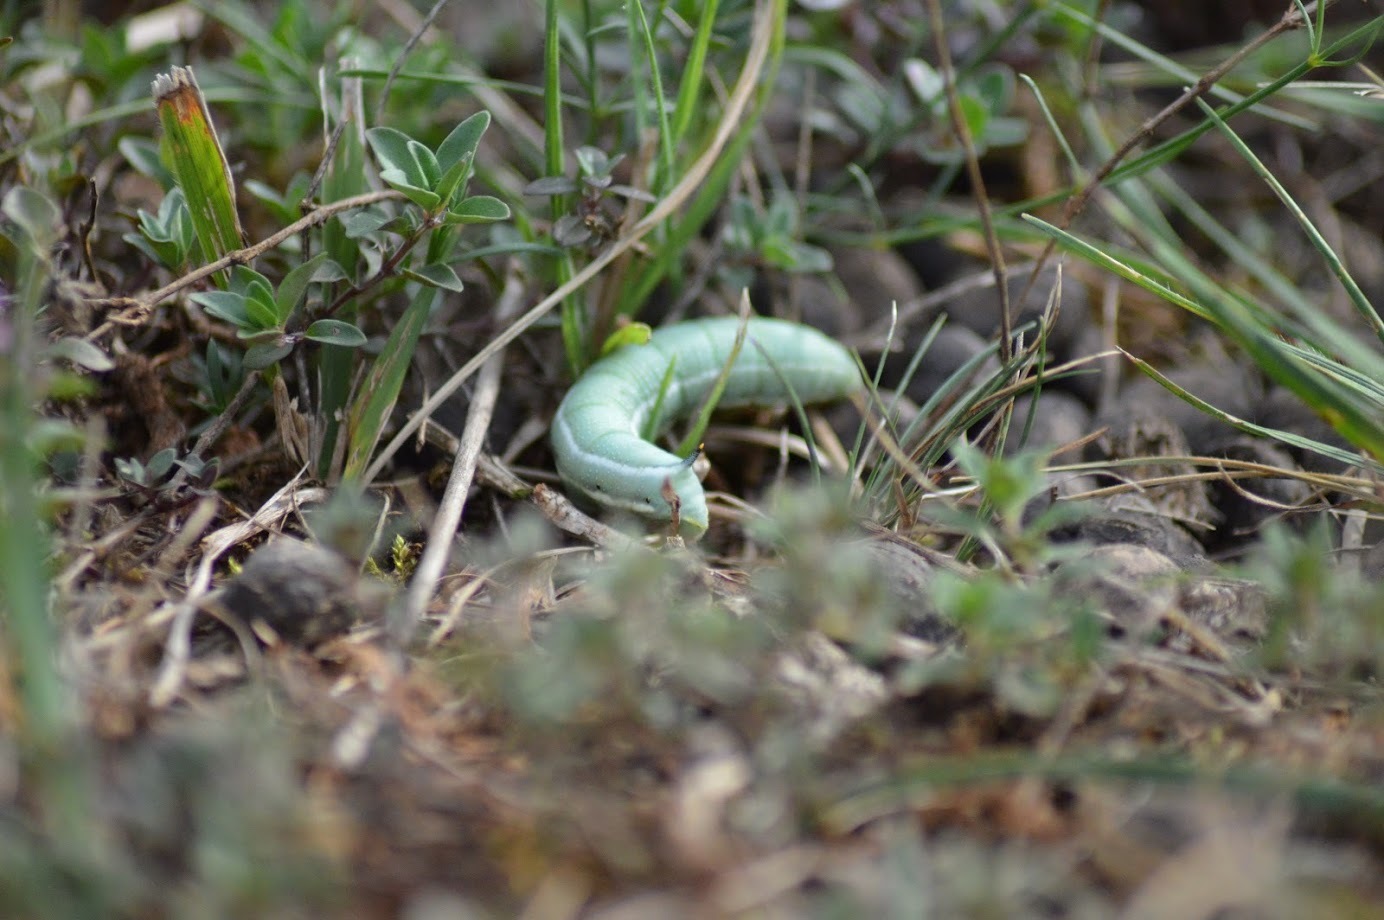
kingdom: Animalia
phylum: Arthropoda
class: Insecta
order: Lepidoptera
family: Sphingidae
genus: Macroglossum
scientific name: Macroglossum stellatarum
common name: Humming-bird hawk-moth
